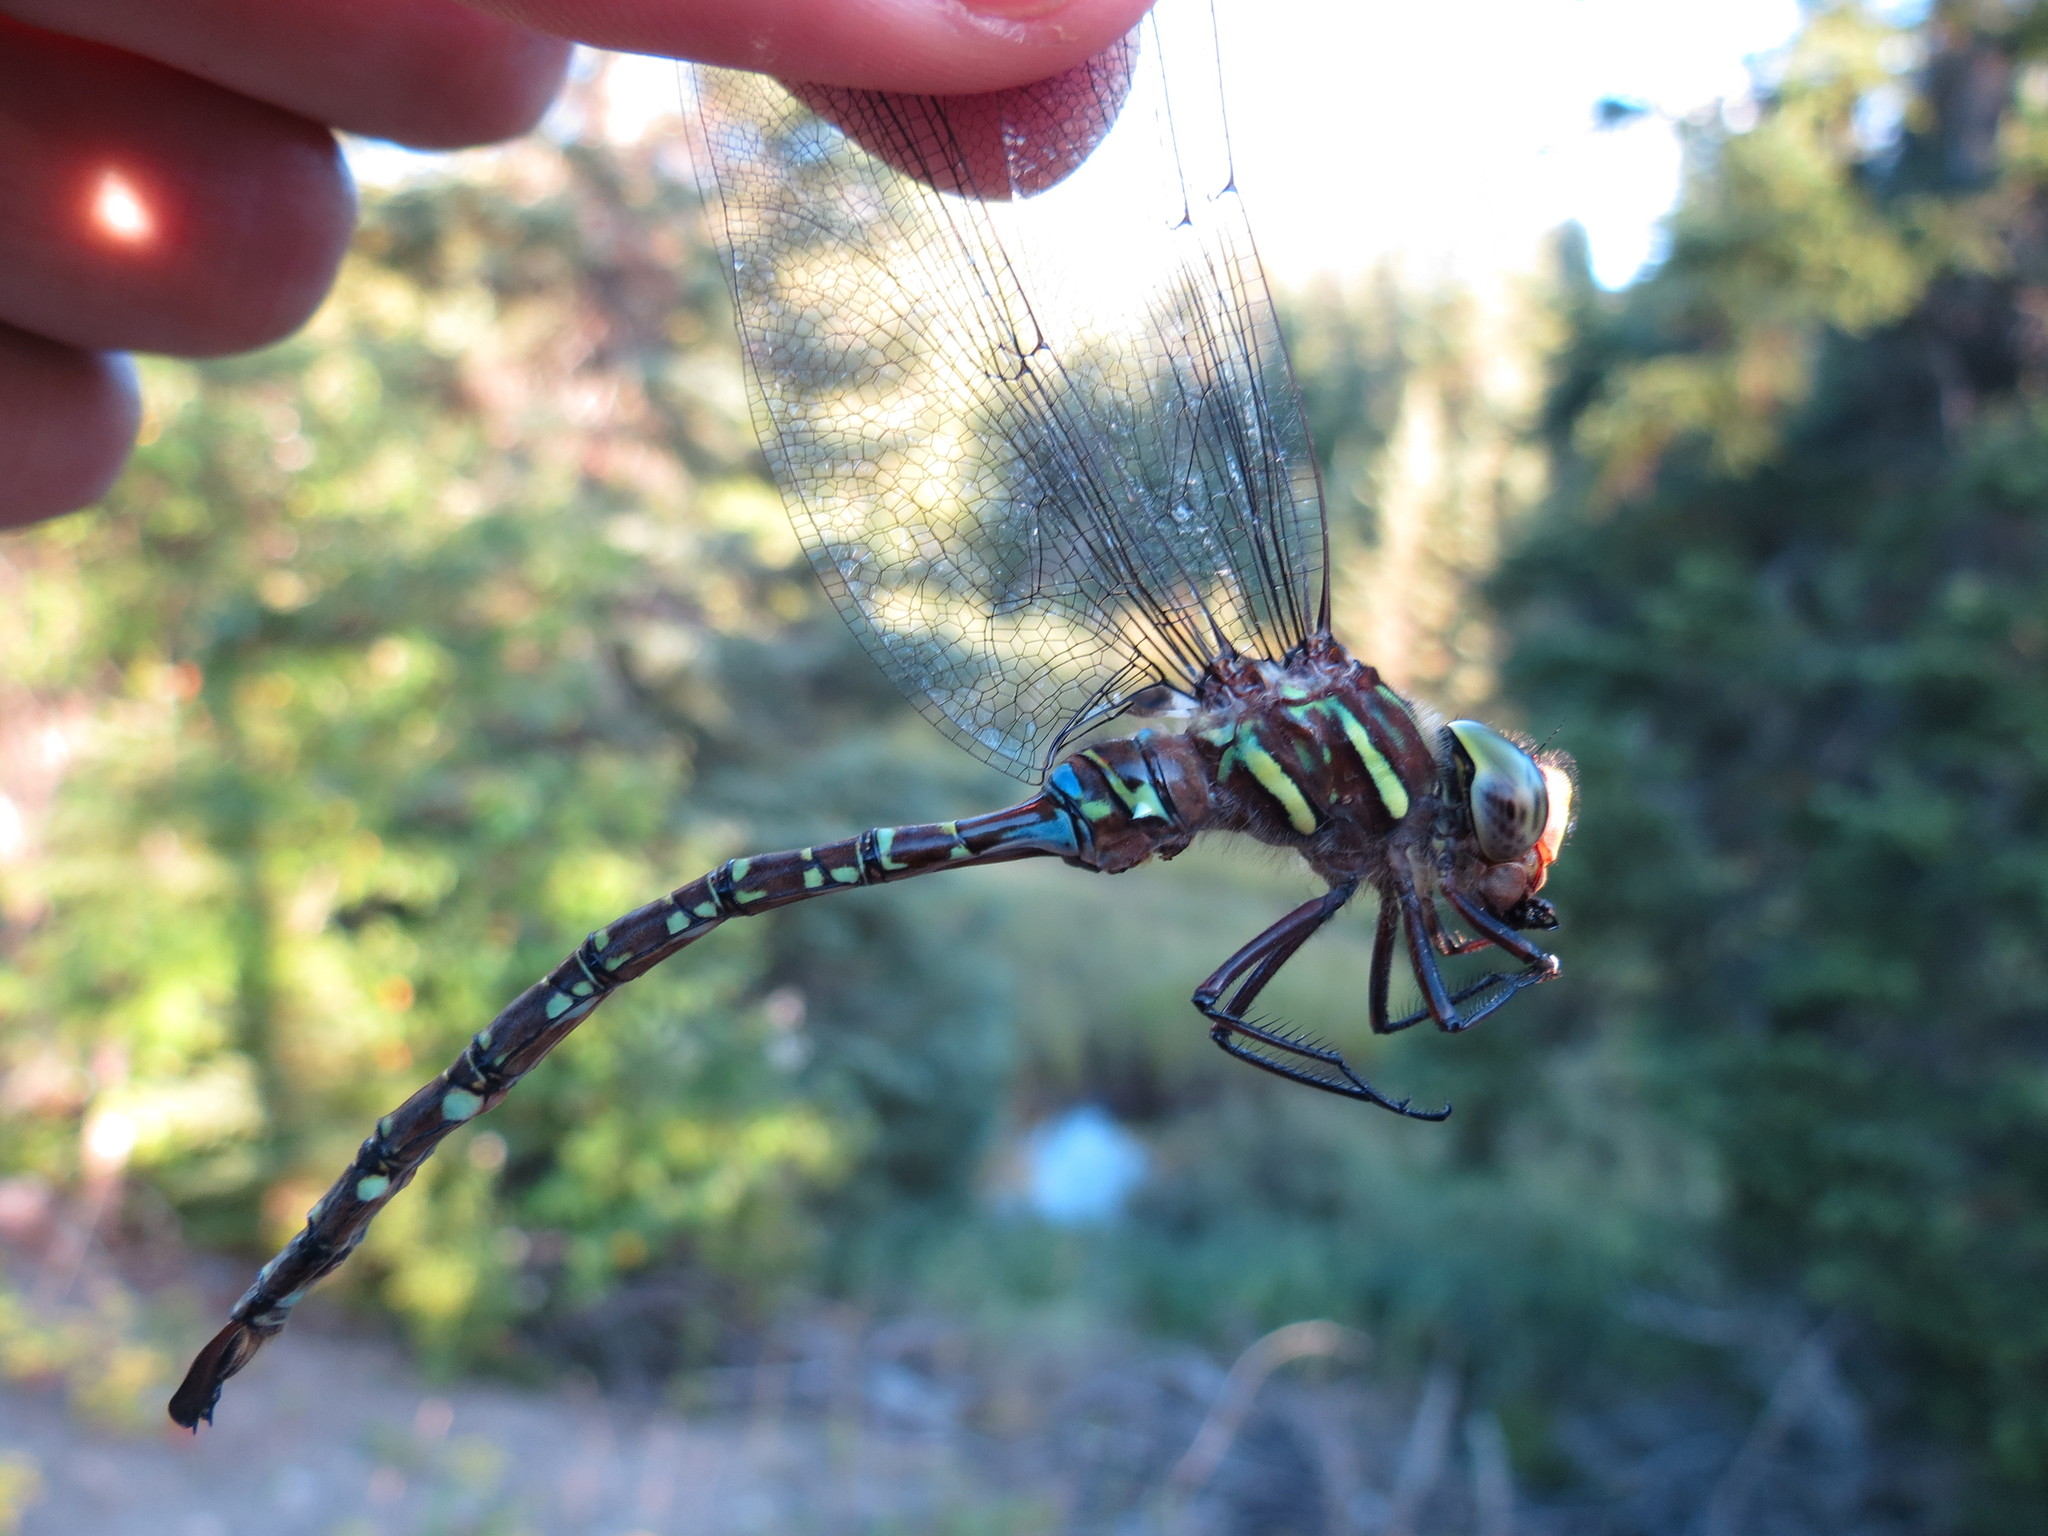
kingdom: Animalia
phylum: Arthropoda
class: Insecta
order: Odonata
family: Aeshnidae
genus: Aeshna
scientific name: Aeshna umbrosa
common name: Shadow darner
